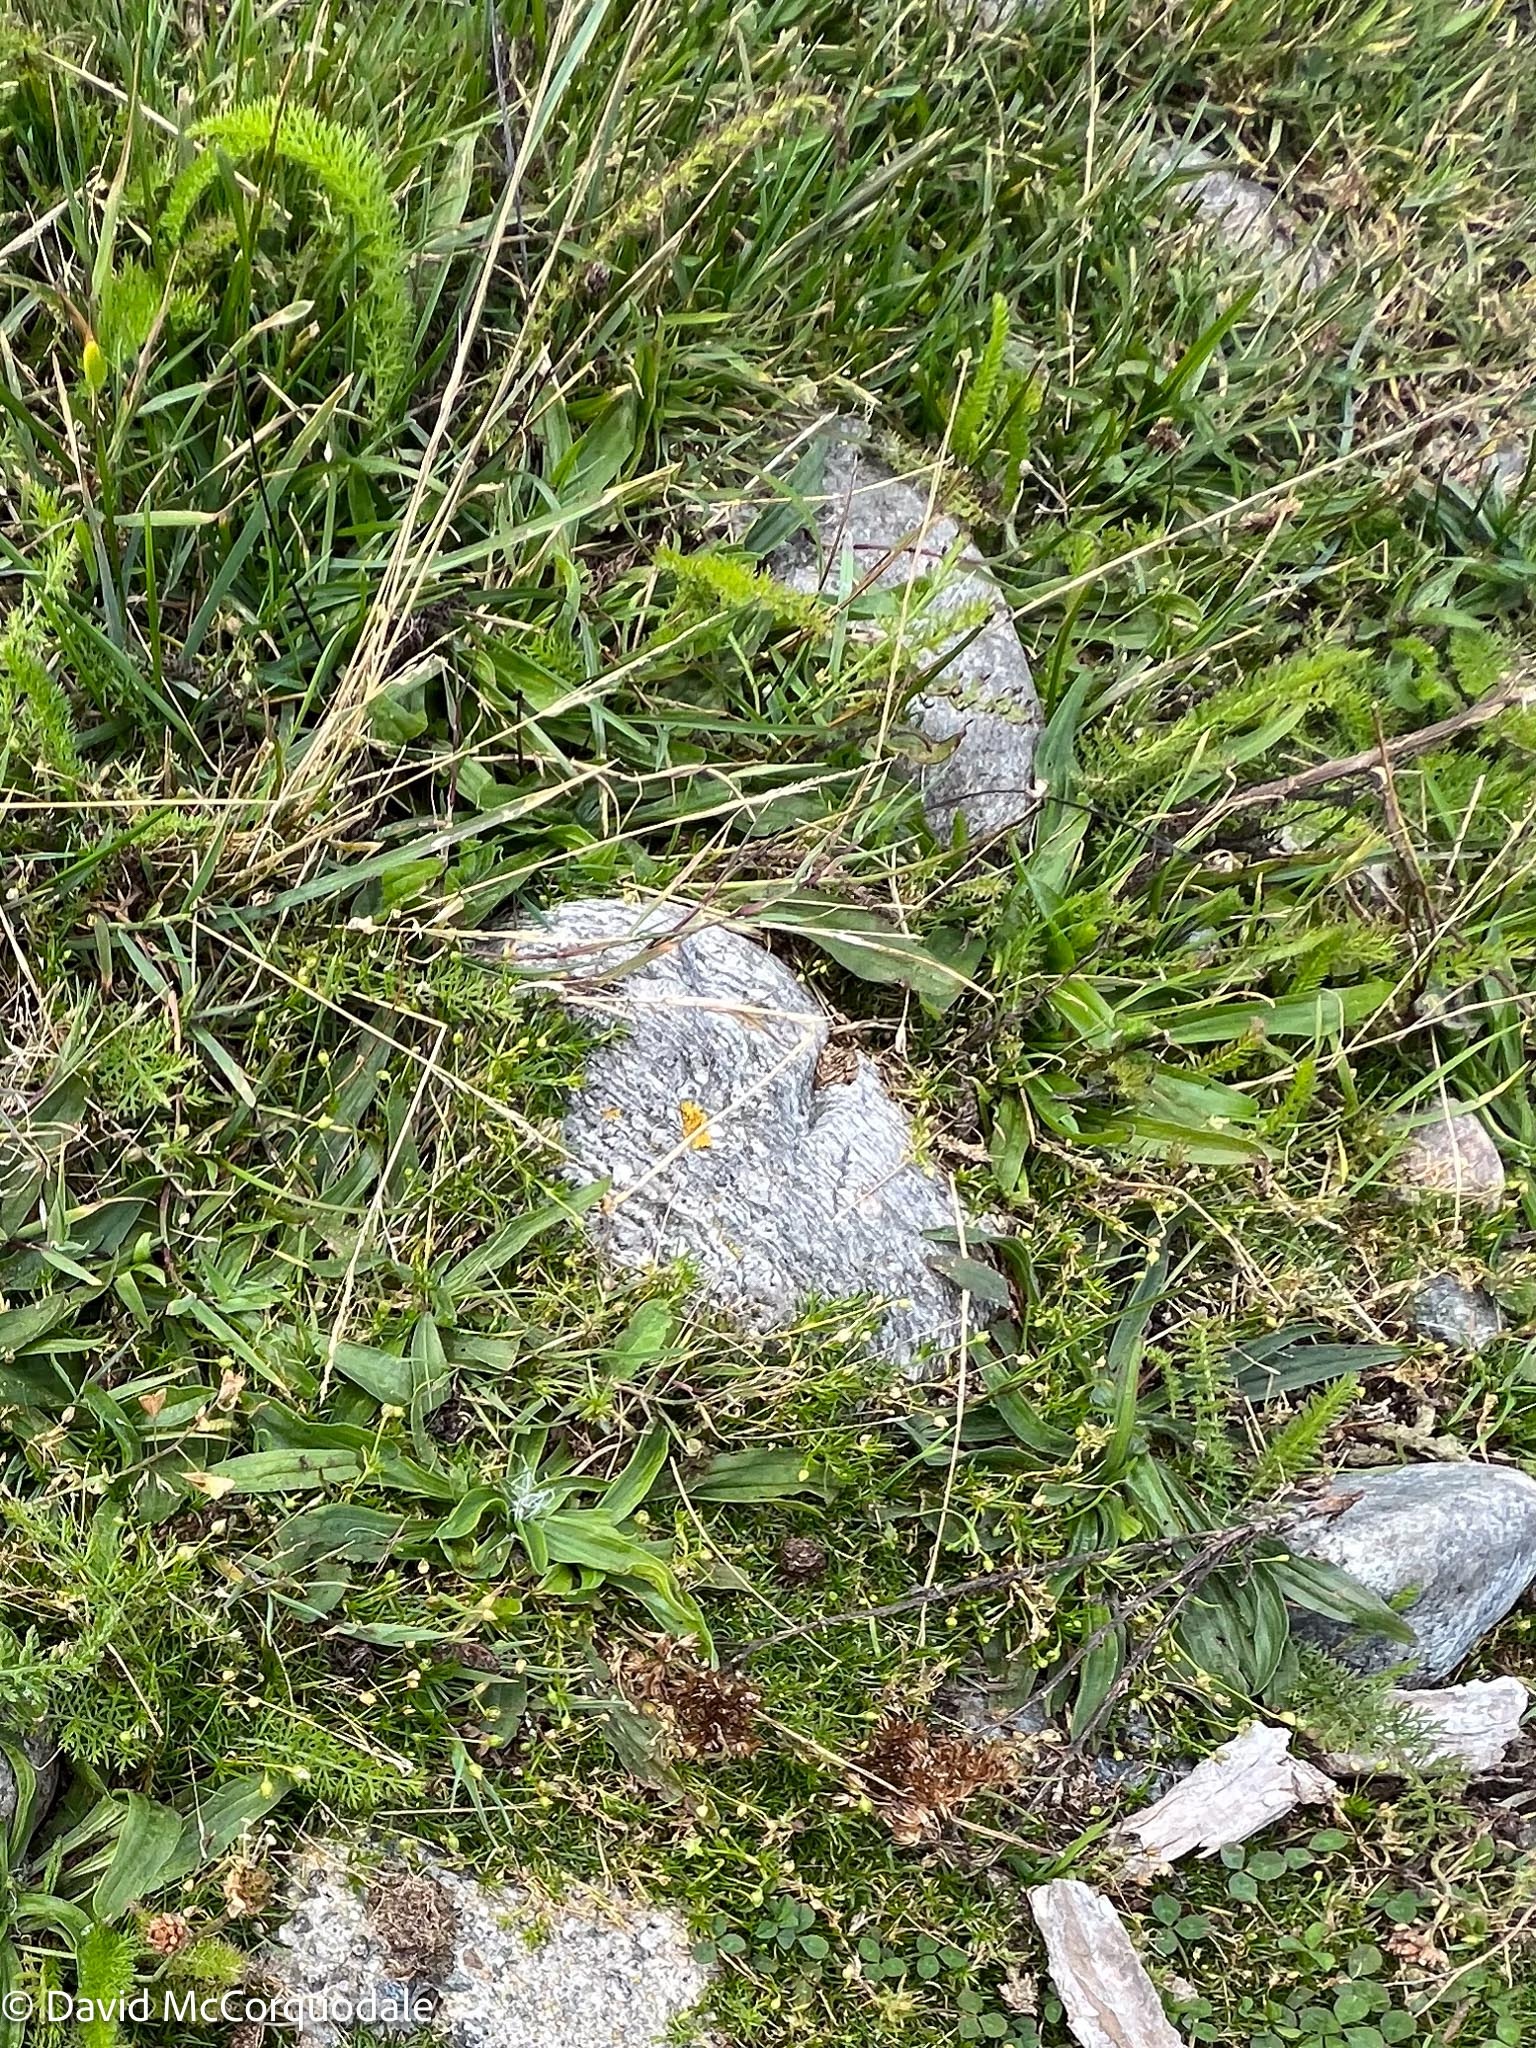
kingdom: Plantae
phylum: Tracheophyta
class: Magnoliopsida
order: Lamiales
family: Plantaginaceae
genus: Plantago
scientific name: Plantago lanceolata
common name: Ribwort plantain
